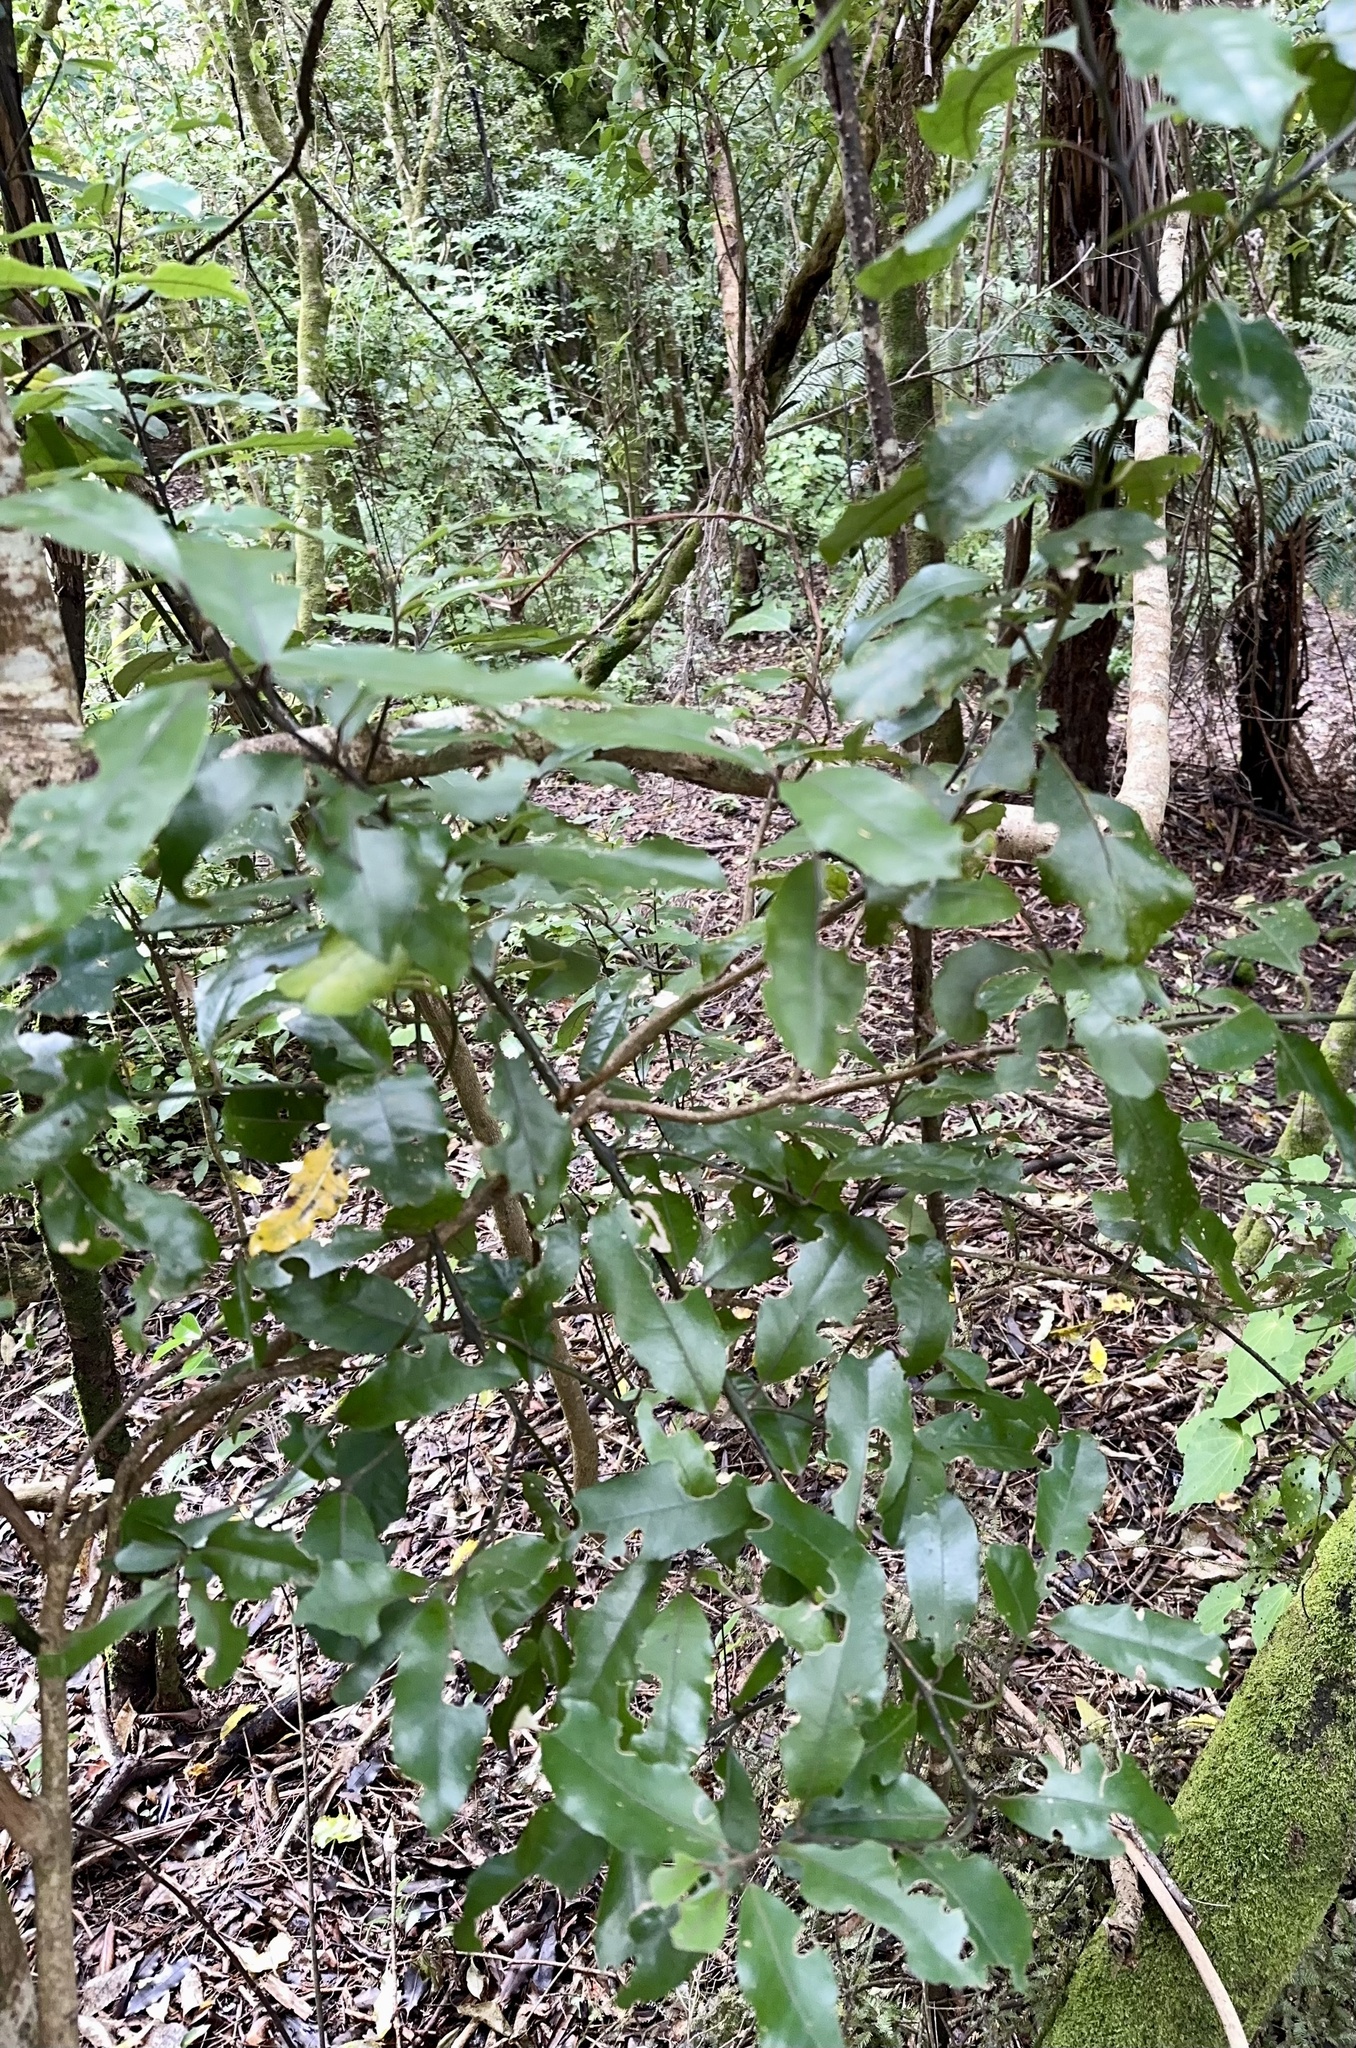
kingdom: Plantae
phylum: Tracheophyta
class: Magnoliopsida
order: Laurales
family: Monimiaceae
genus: Hedycarya
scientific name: Hedycarya arborea
